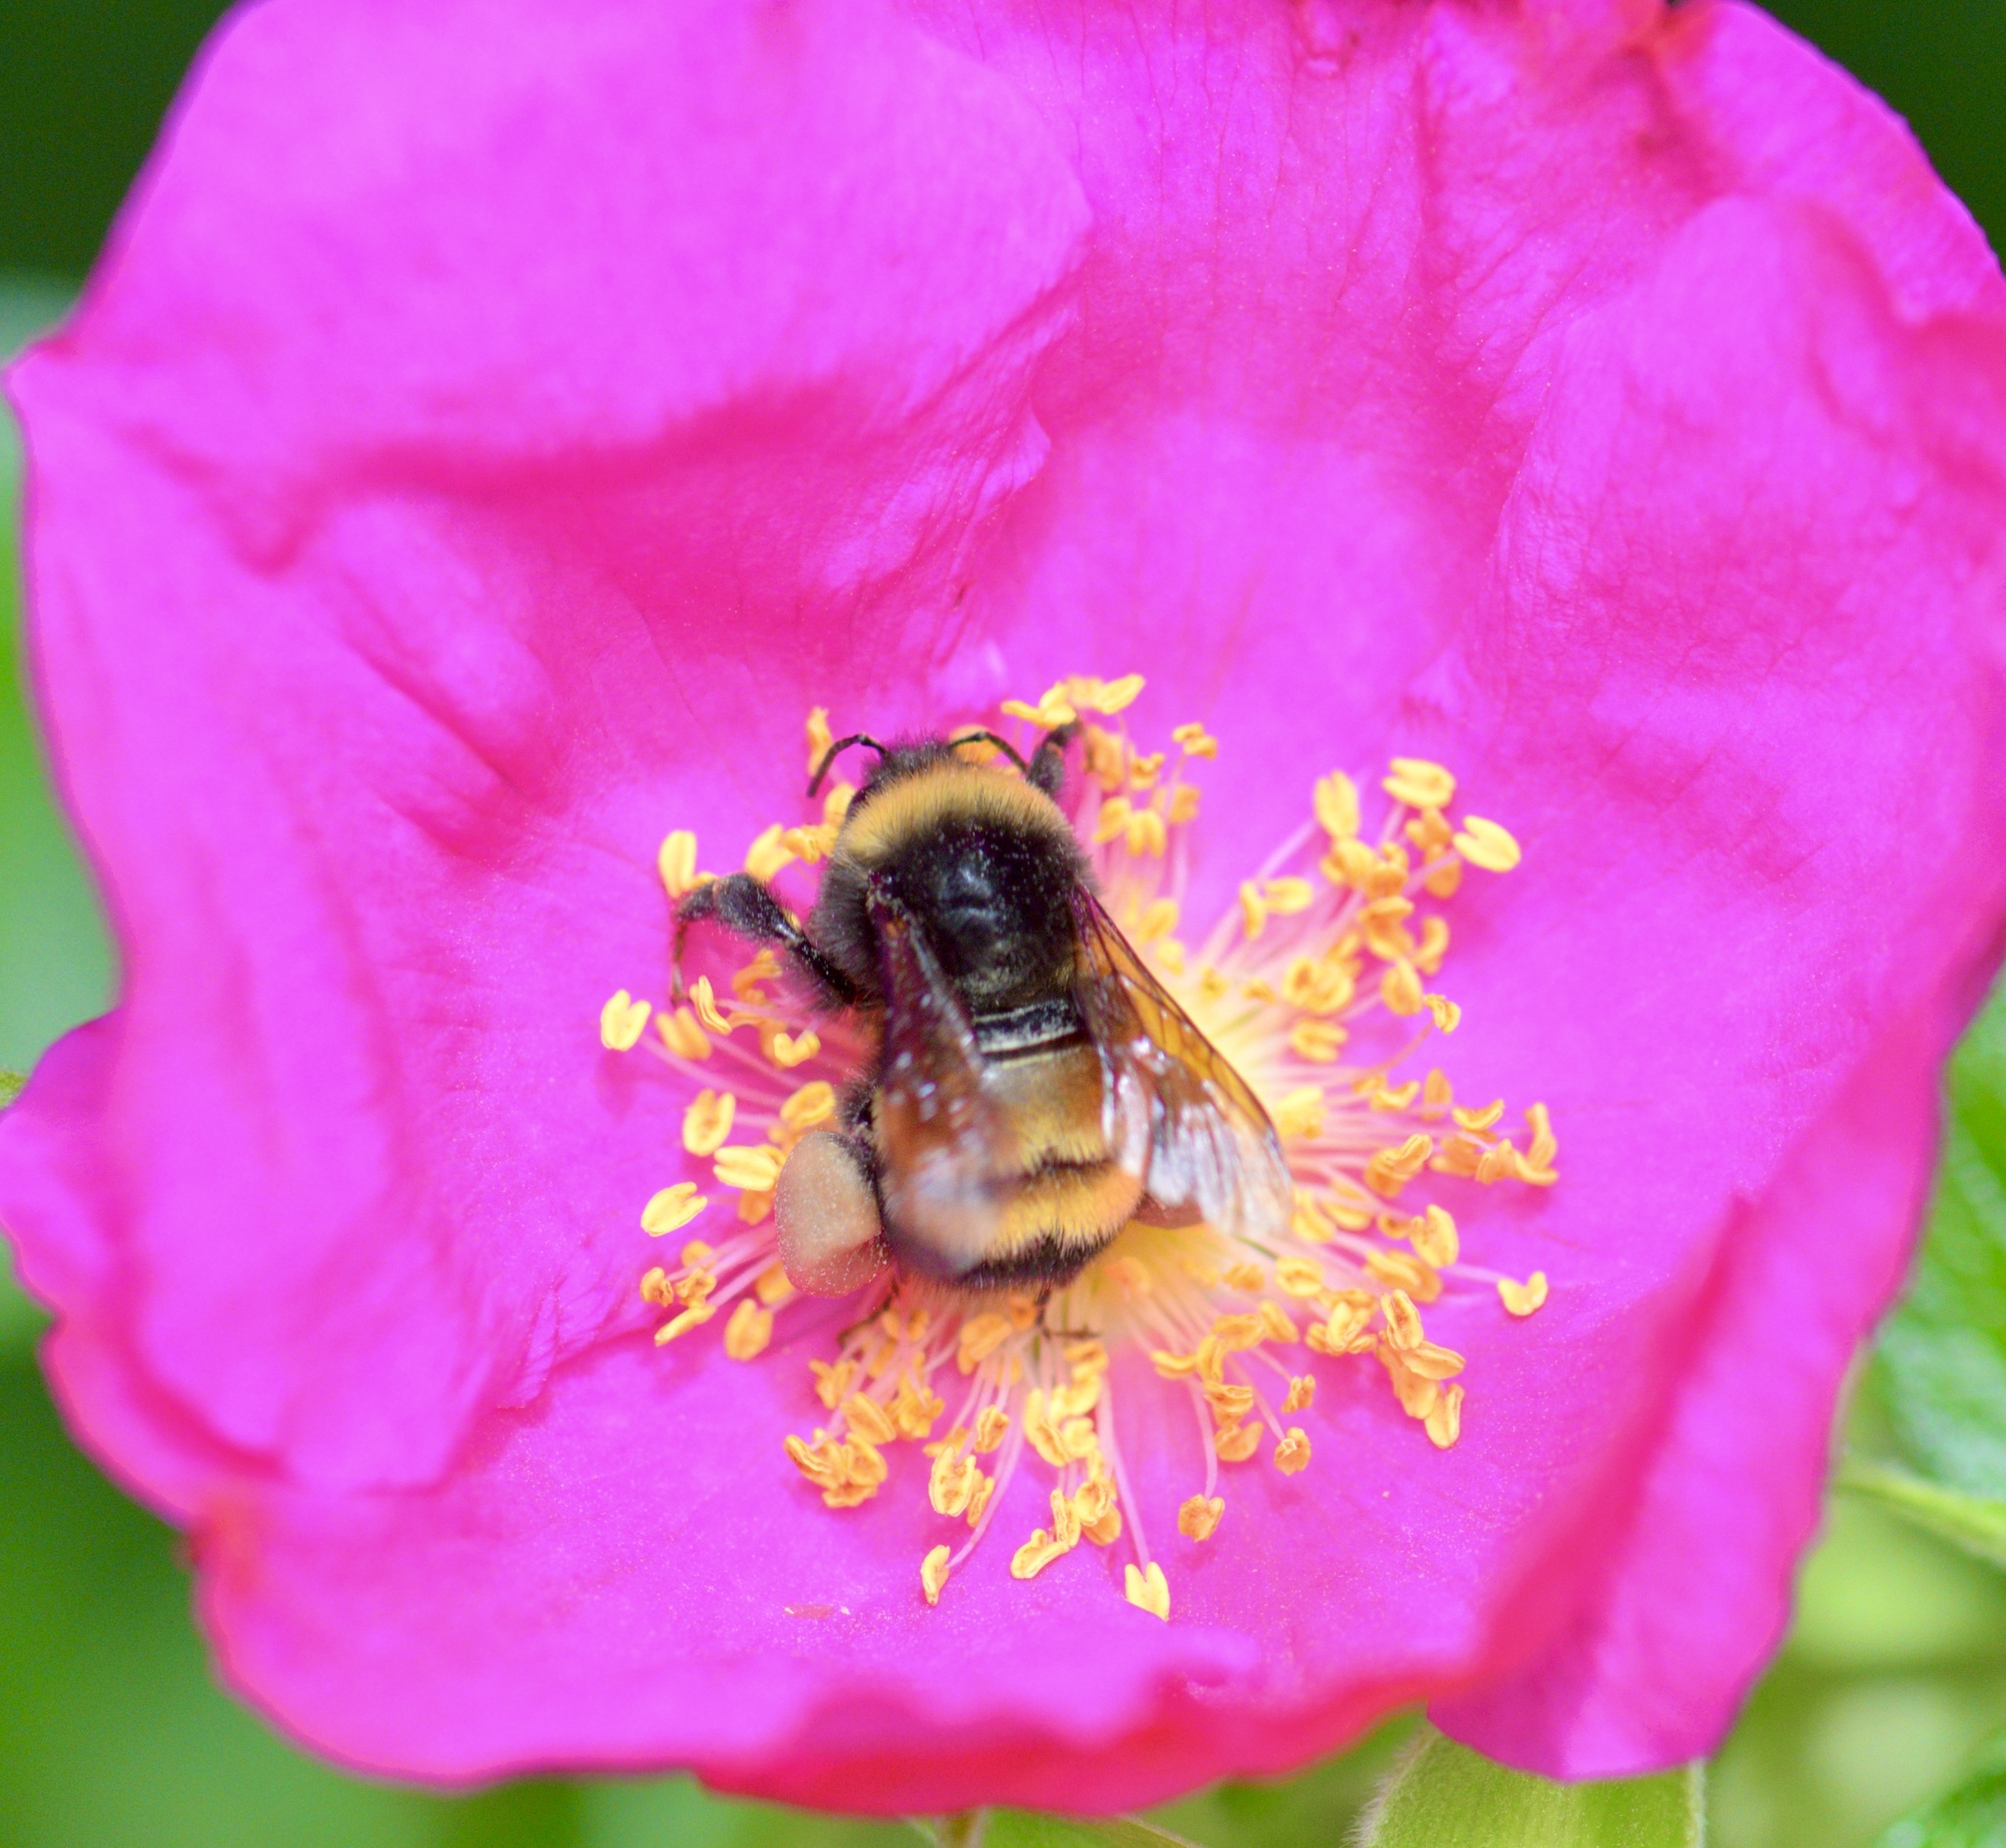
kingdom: Animalia
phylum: Arthropoda
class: Insecta
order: Hymenoptera
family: Apidae
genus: Bombus
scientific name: Bombus terricola
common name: Yellow-banded bumble bee
